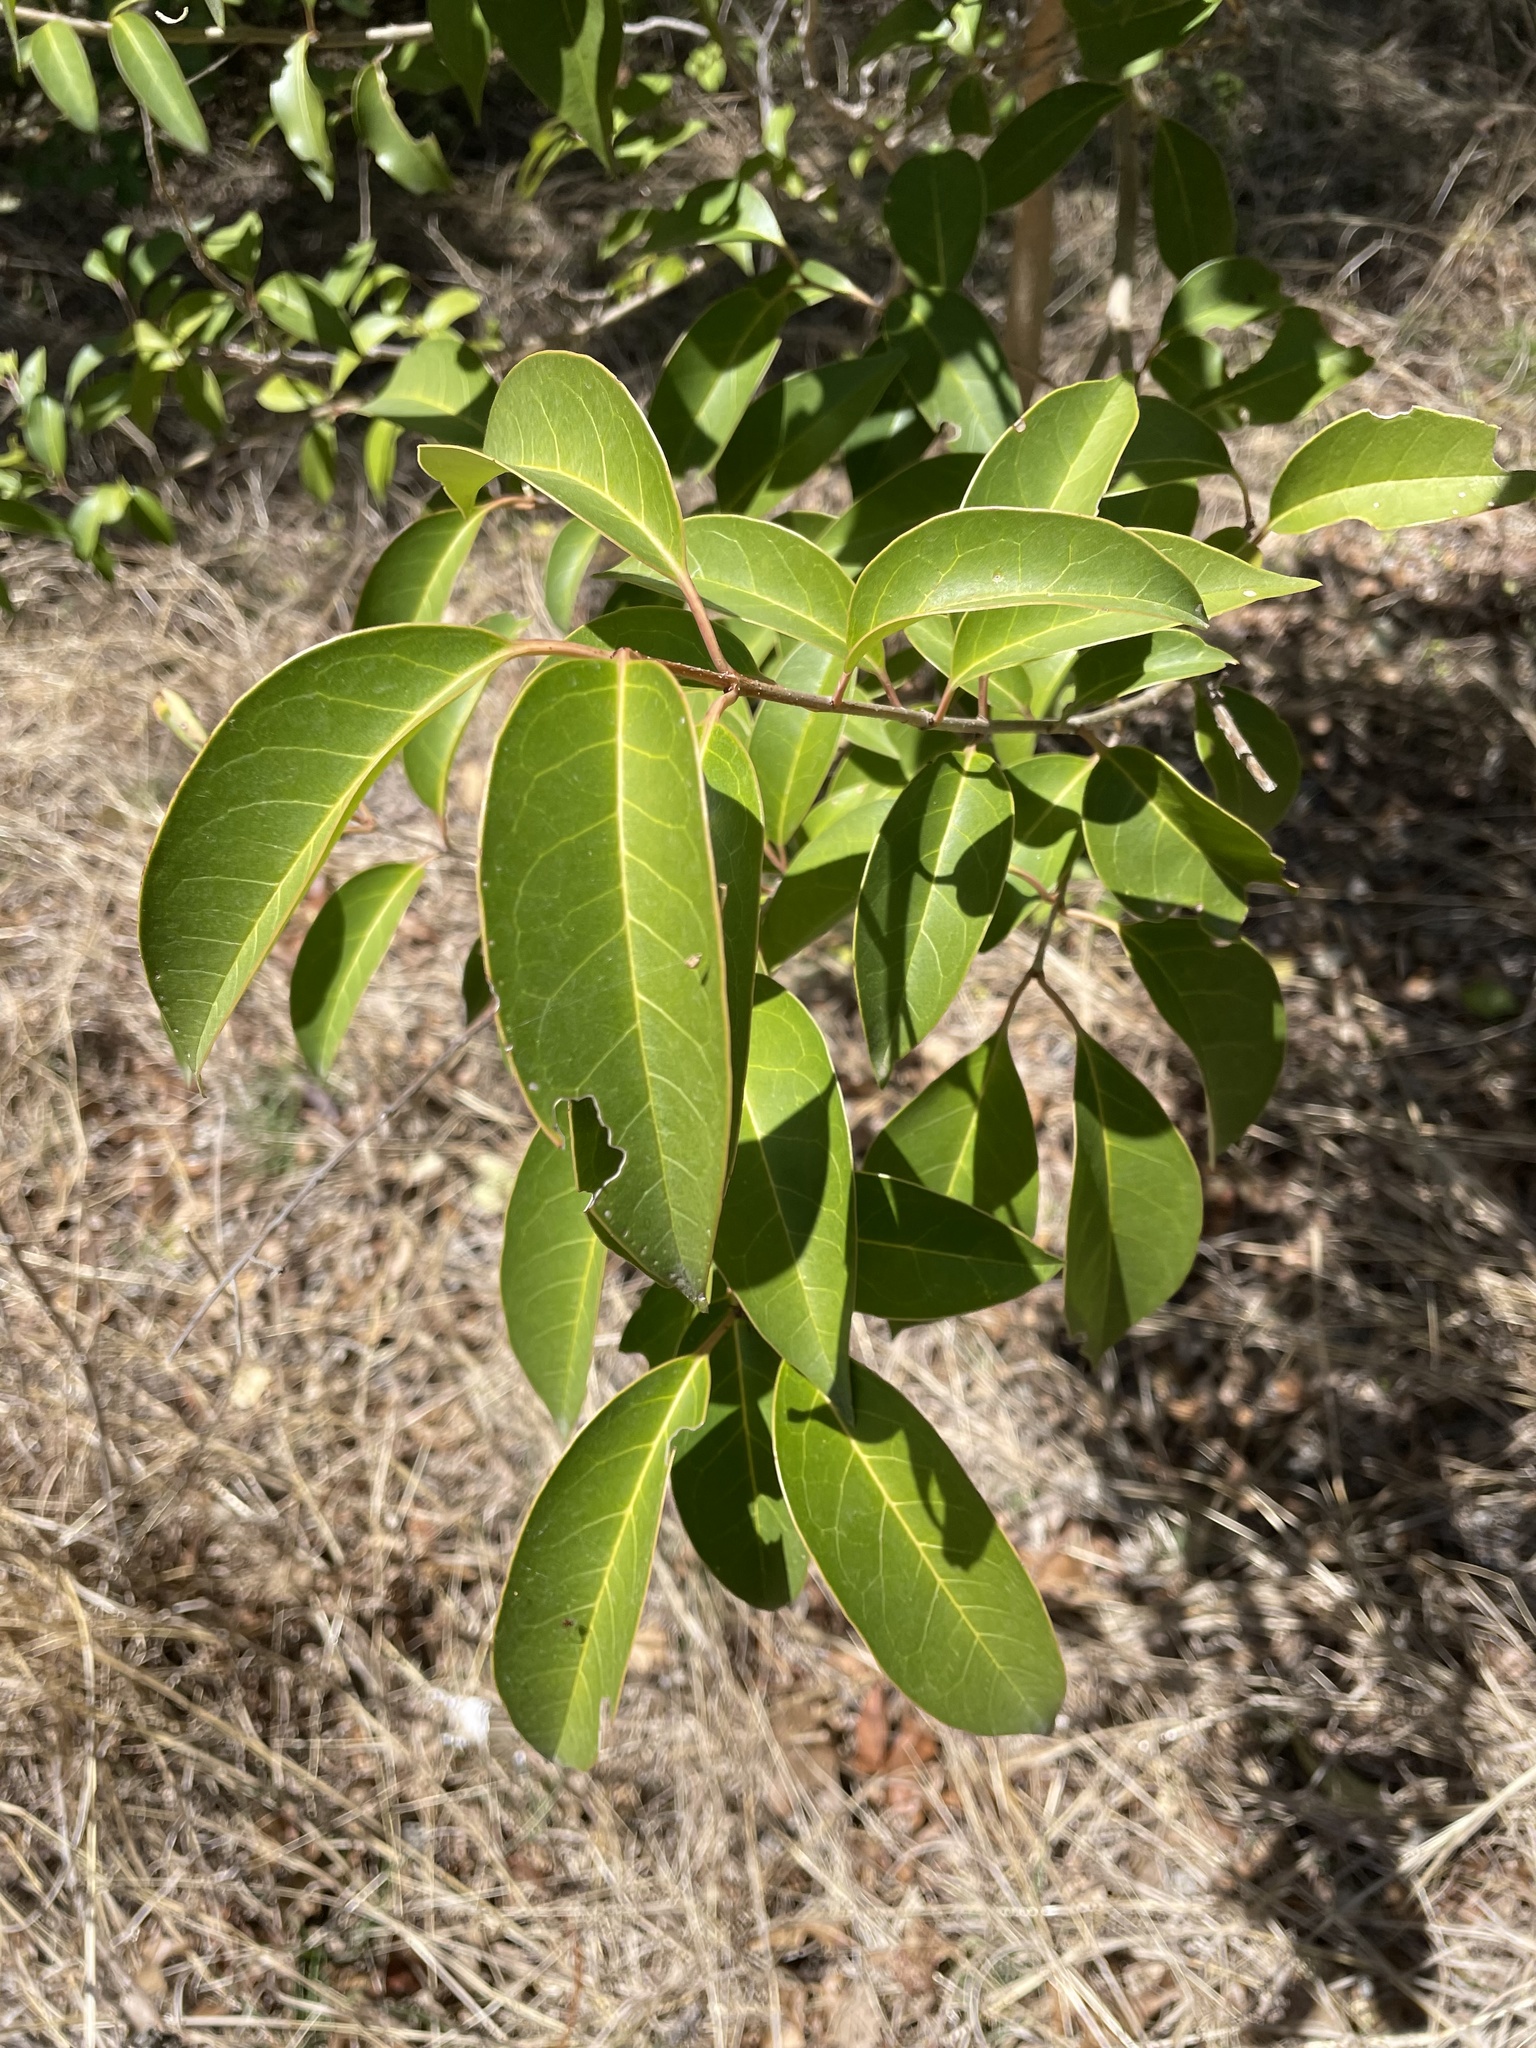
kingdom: Plantae
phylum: Tracheophyta
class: Magnoliopsida
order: Lamiales
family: Oleaceae
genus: Ligustrum
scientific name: Ligustrum lucidum
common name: Glossy privet
